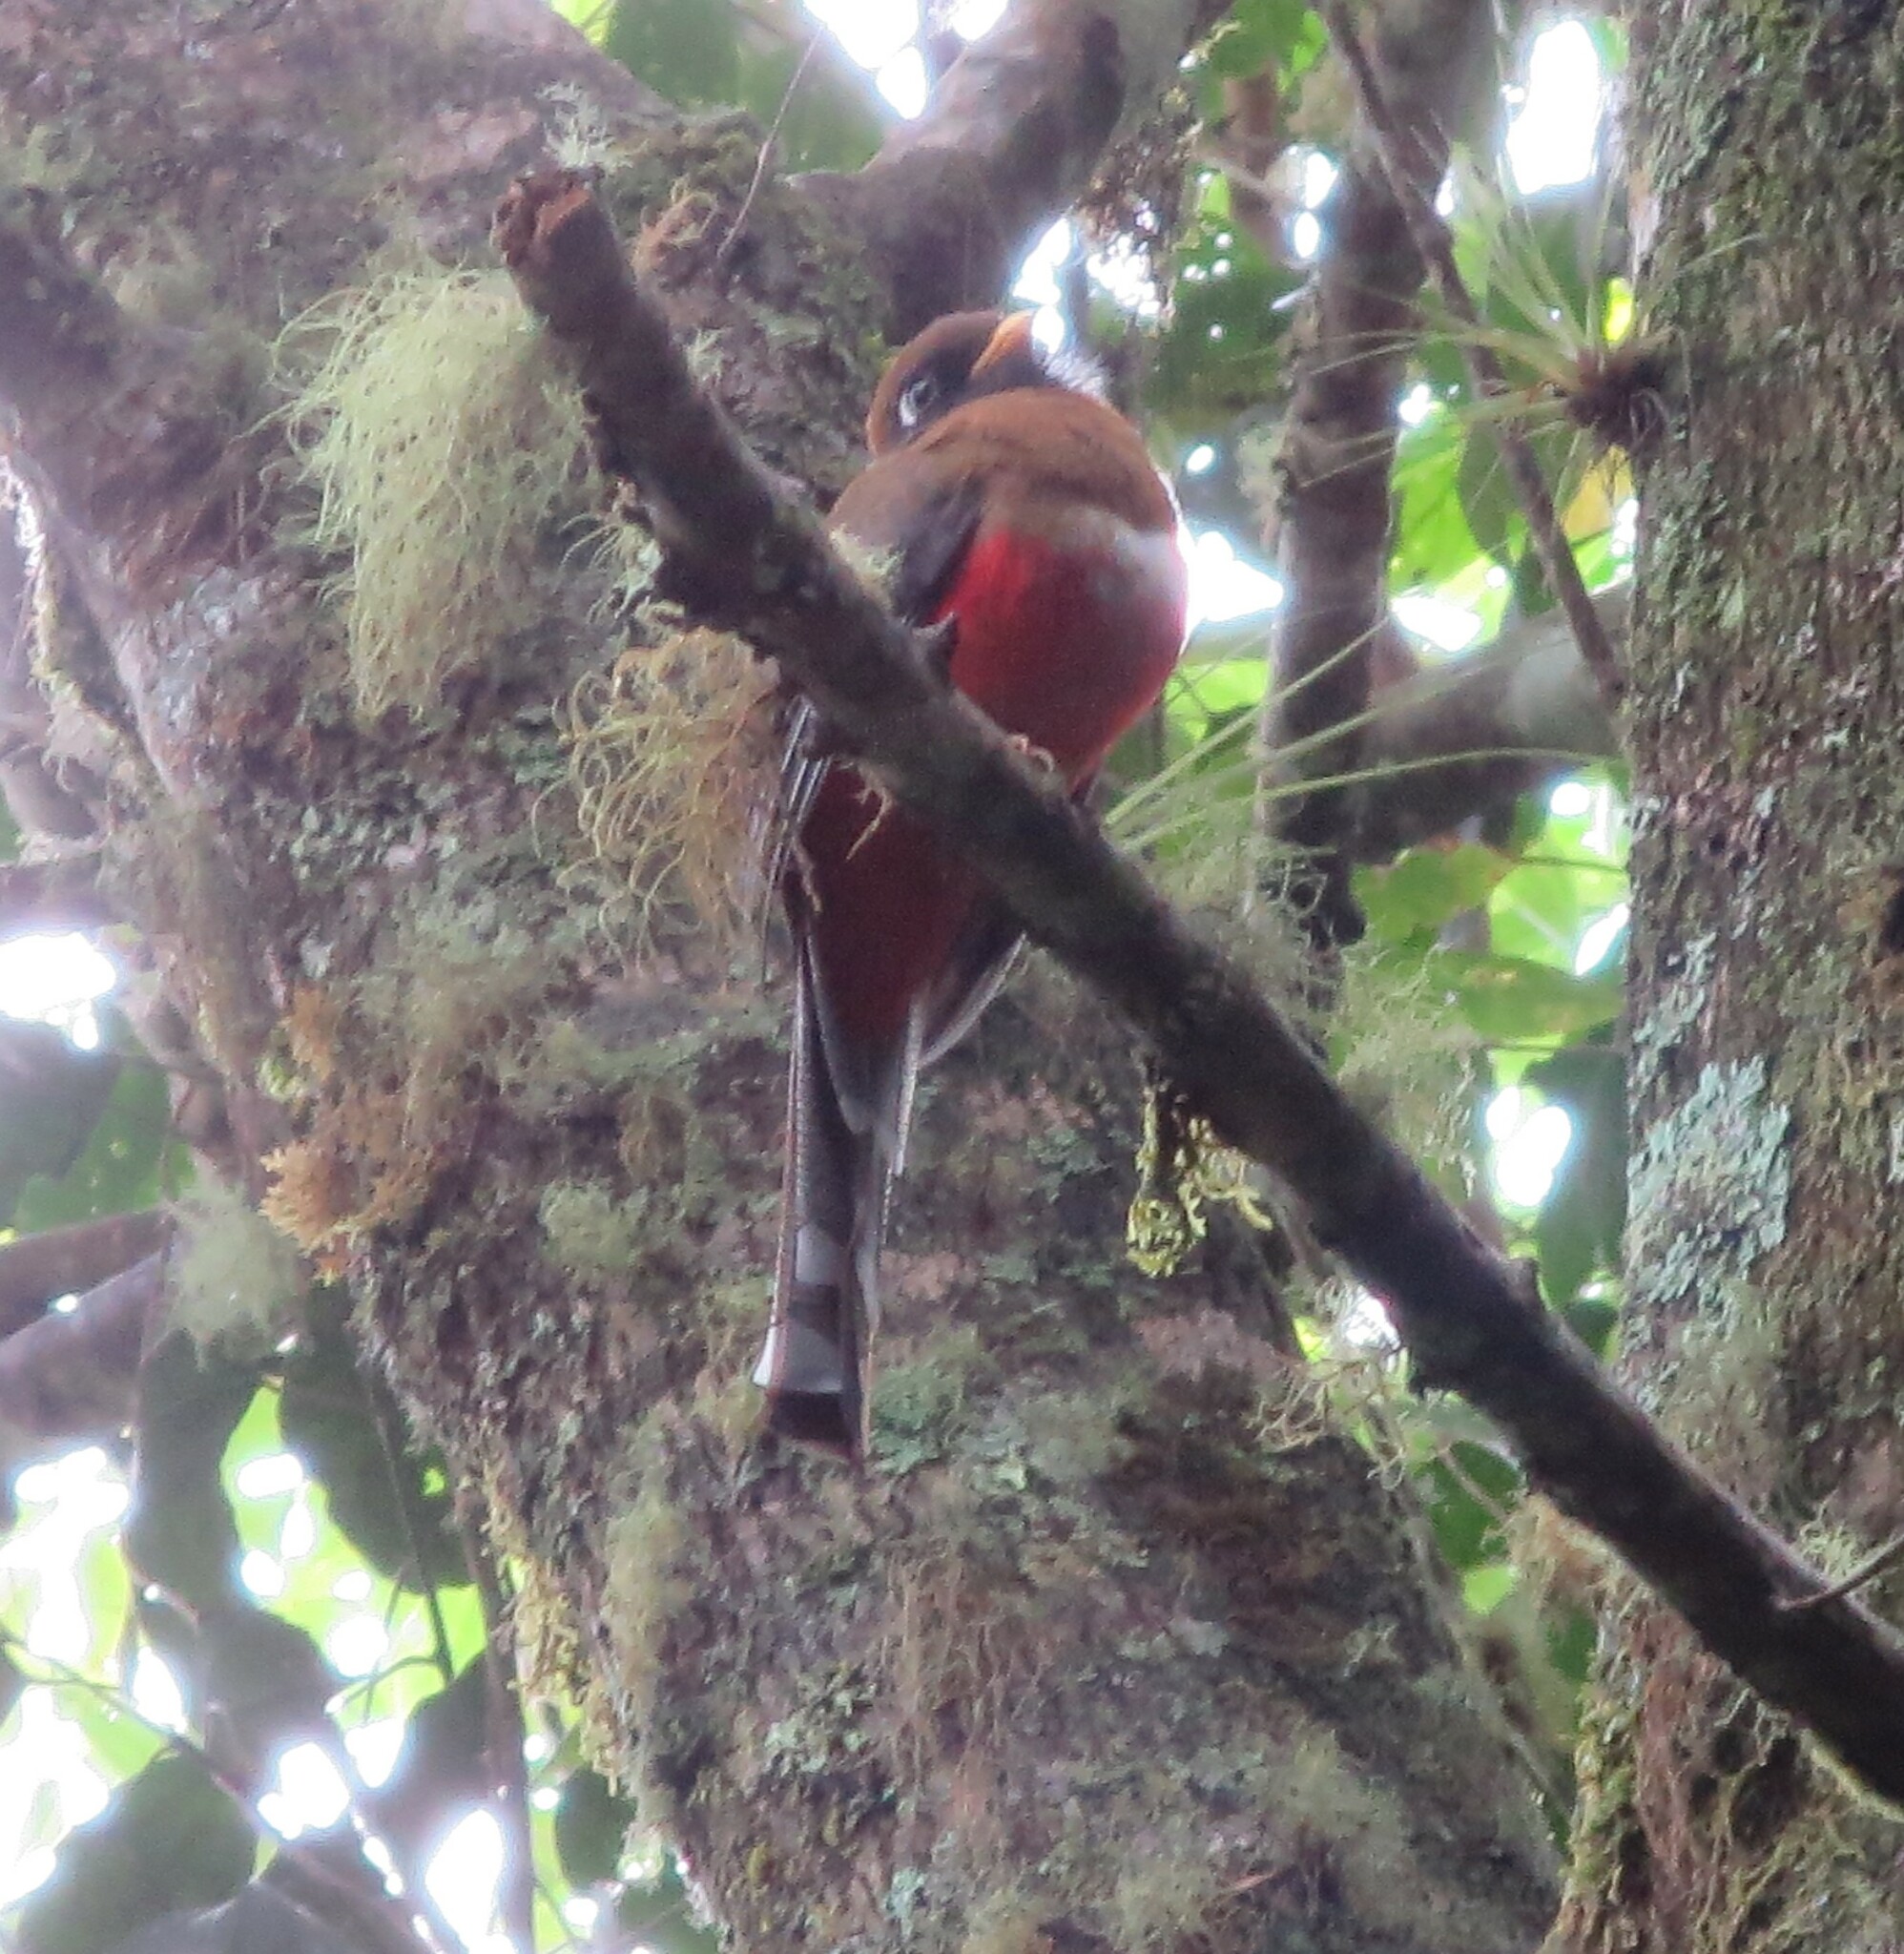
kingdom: Animalia
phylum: Chordata
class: Aves
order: Trogoniformes
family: Trogonidae
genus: Trogon
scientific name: Trogon personatus
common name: Masked trogon
